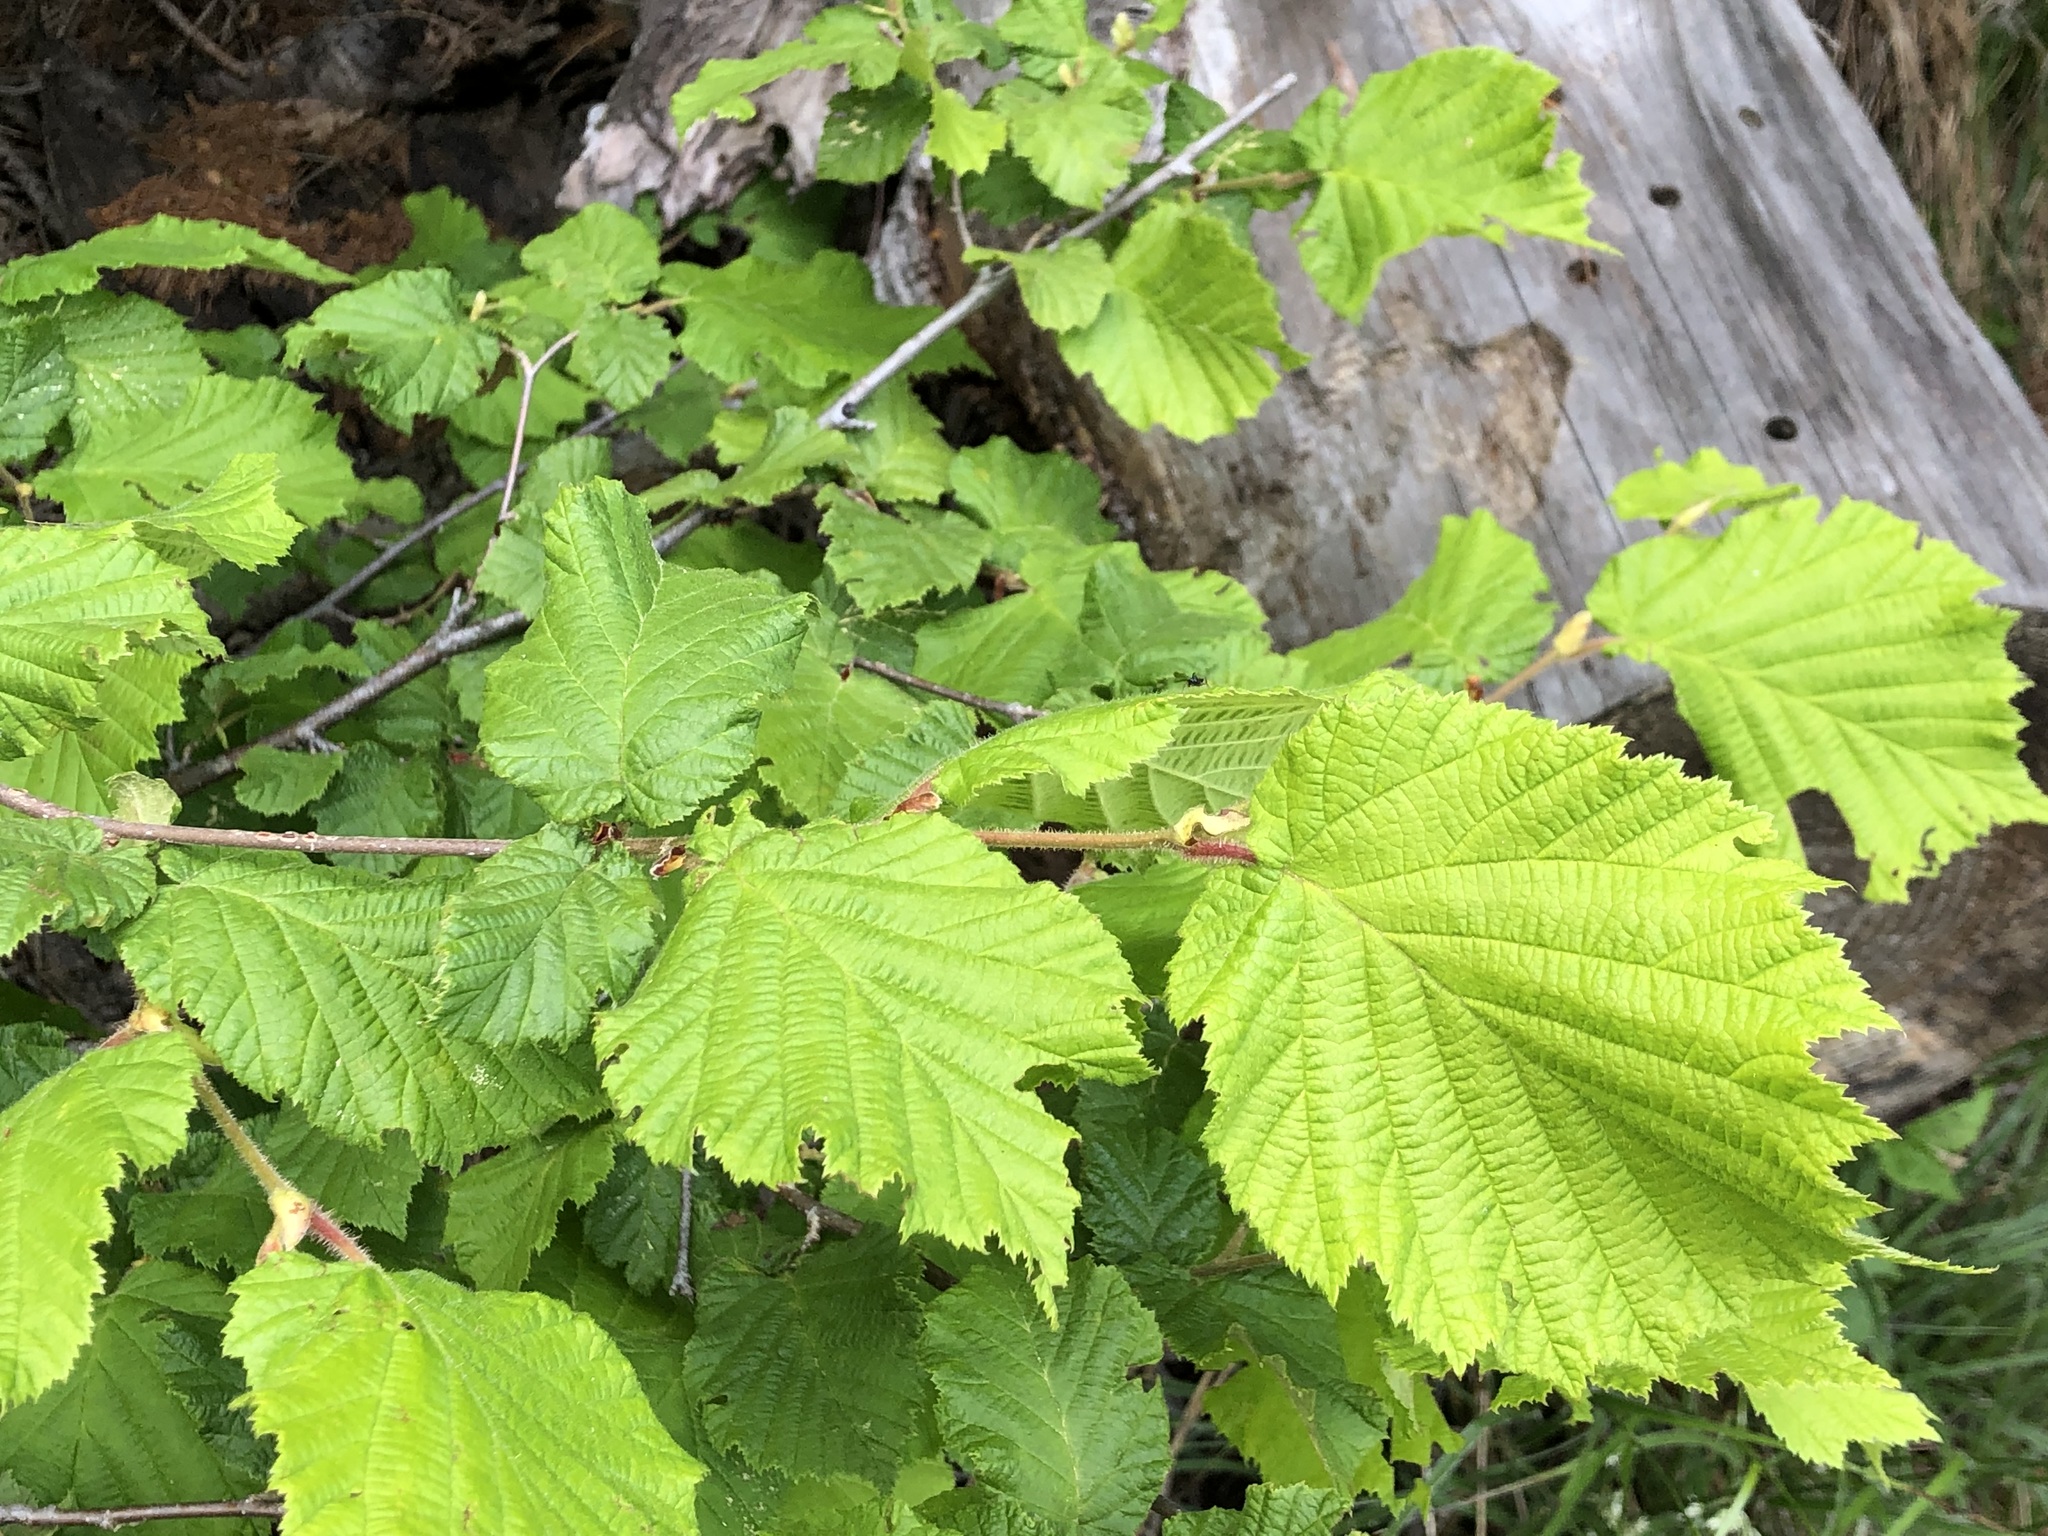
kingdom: Plantae
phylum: Tracheophyta
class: Magnoliopsida
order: Fagales
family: Betulaceae
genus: Corylus
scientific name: Corylus avellana
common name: European hazel
